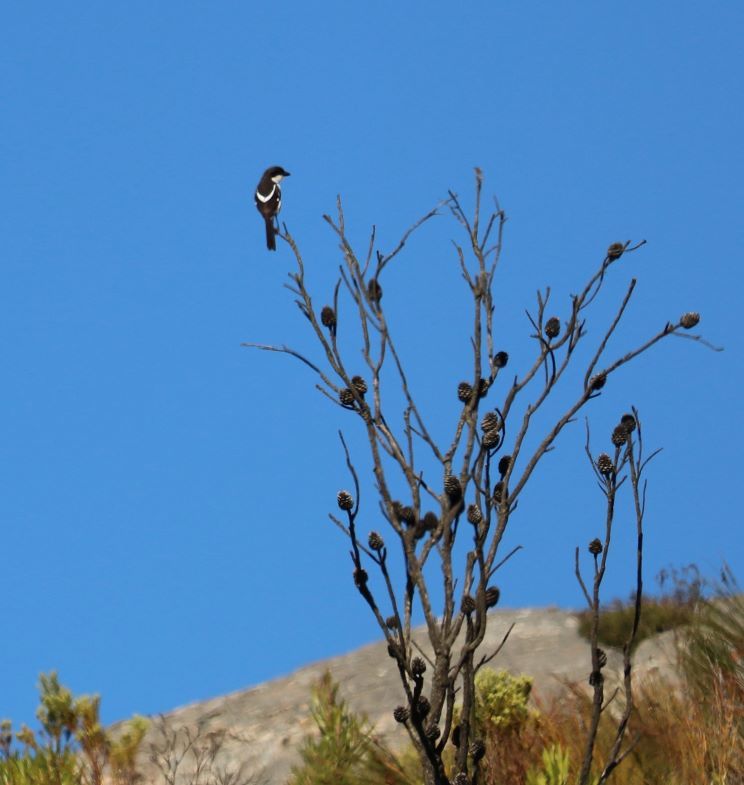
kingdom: Animalia
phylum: Chordata
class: Aves
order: Passeriformes
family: Laniidae
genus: Lanius
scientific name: Lanius collaris
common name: Southern fiscal
